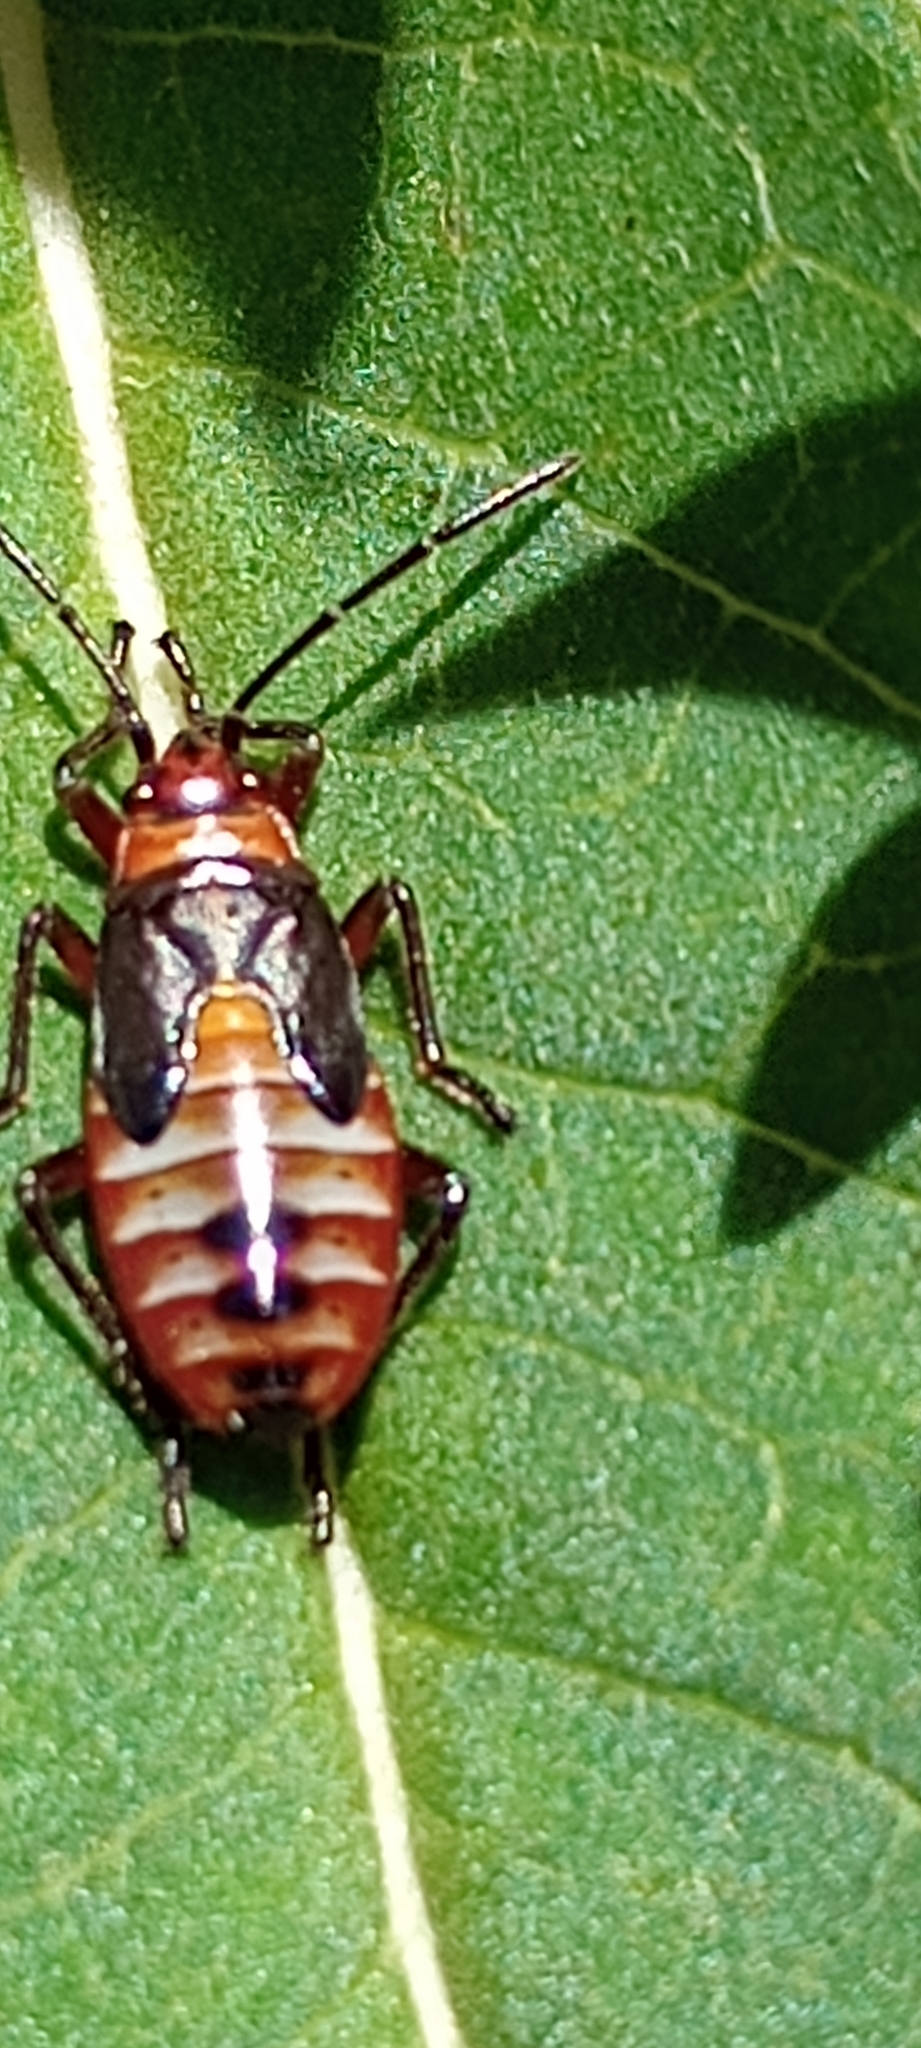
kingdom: Animalia
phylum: Arthropoda
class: Insecta
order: Hemiptera
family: Lygaeidae
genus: Oncopeltus
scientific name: Oncopeltus unifasciatellus
